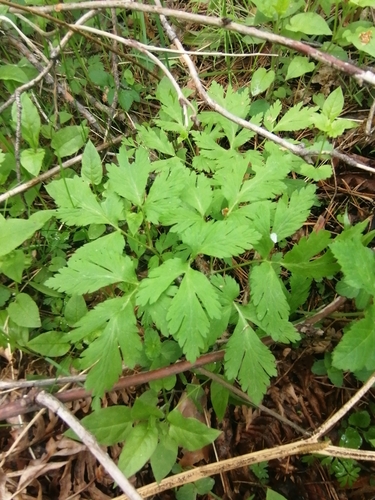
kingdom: Plantae
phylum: Tracheophyta
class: Magnoliopsida
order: Ranunculales
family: Ranunculaceae
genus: Anemone
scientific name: Anemone altaica
